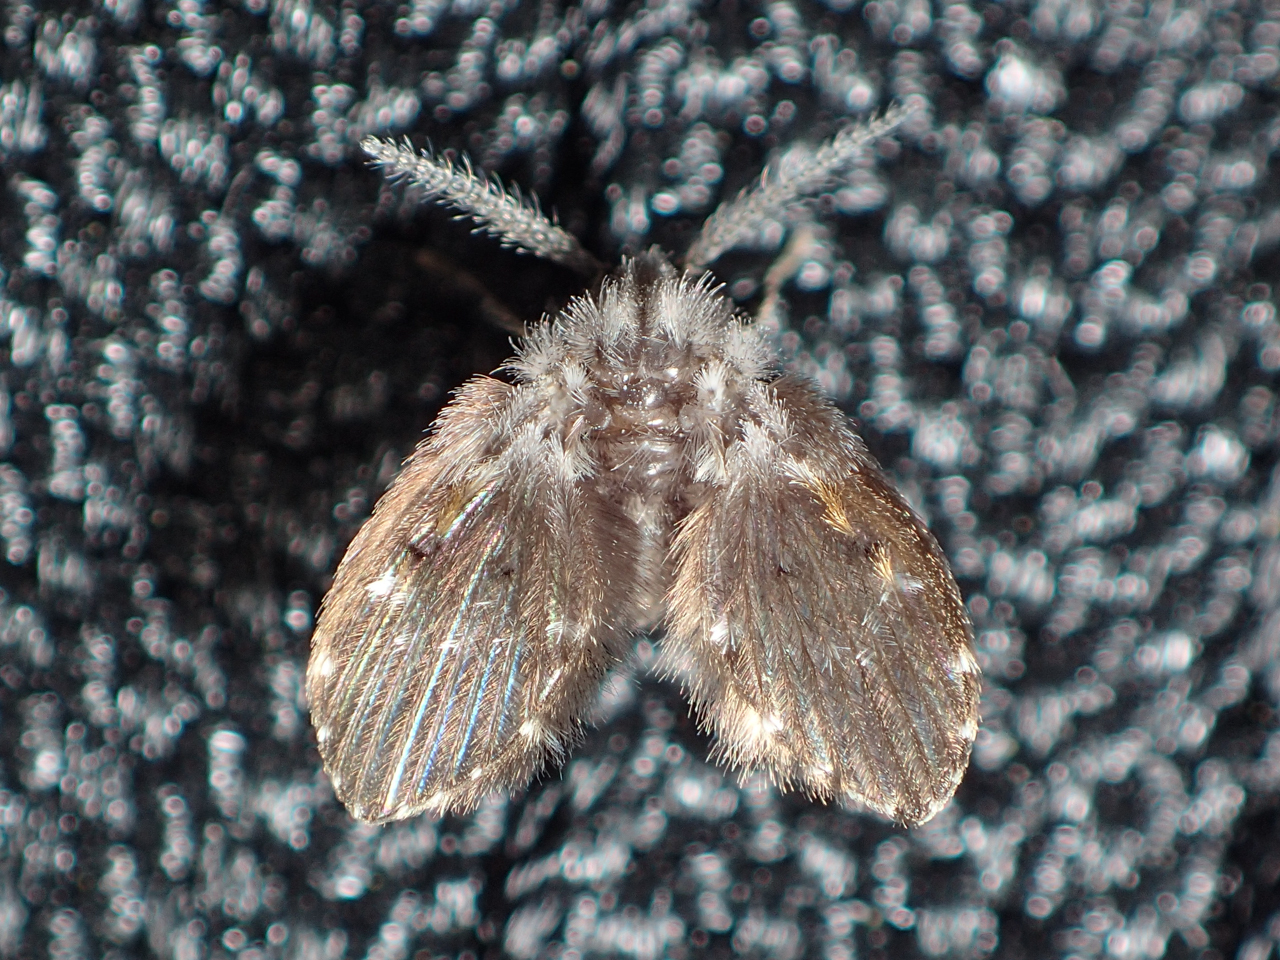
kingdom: Animalia
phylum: Arthropoda
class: Insecta
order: Diptera
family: Psychodidae
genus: Clogmia
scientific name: Clogmia albipunctatus
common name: White-spotted moth fly
